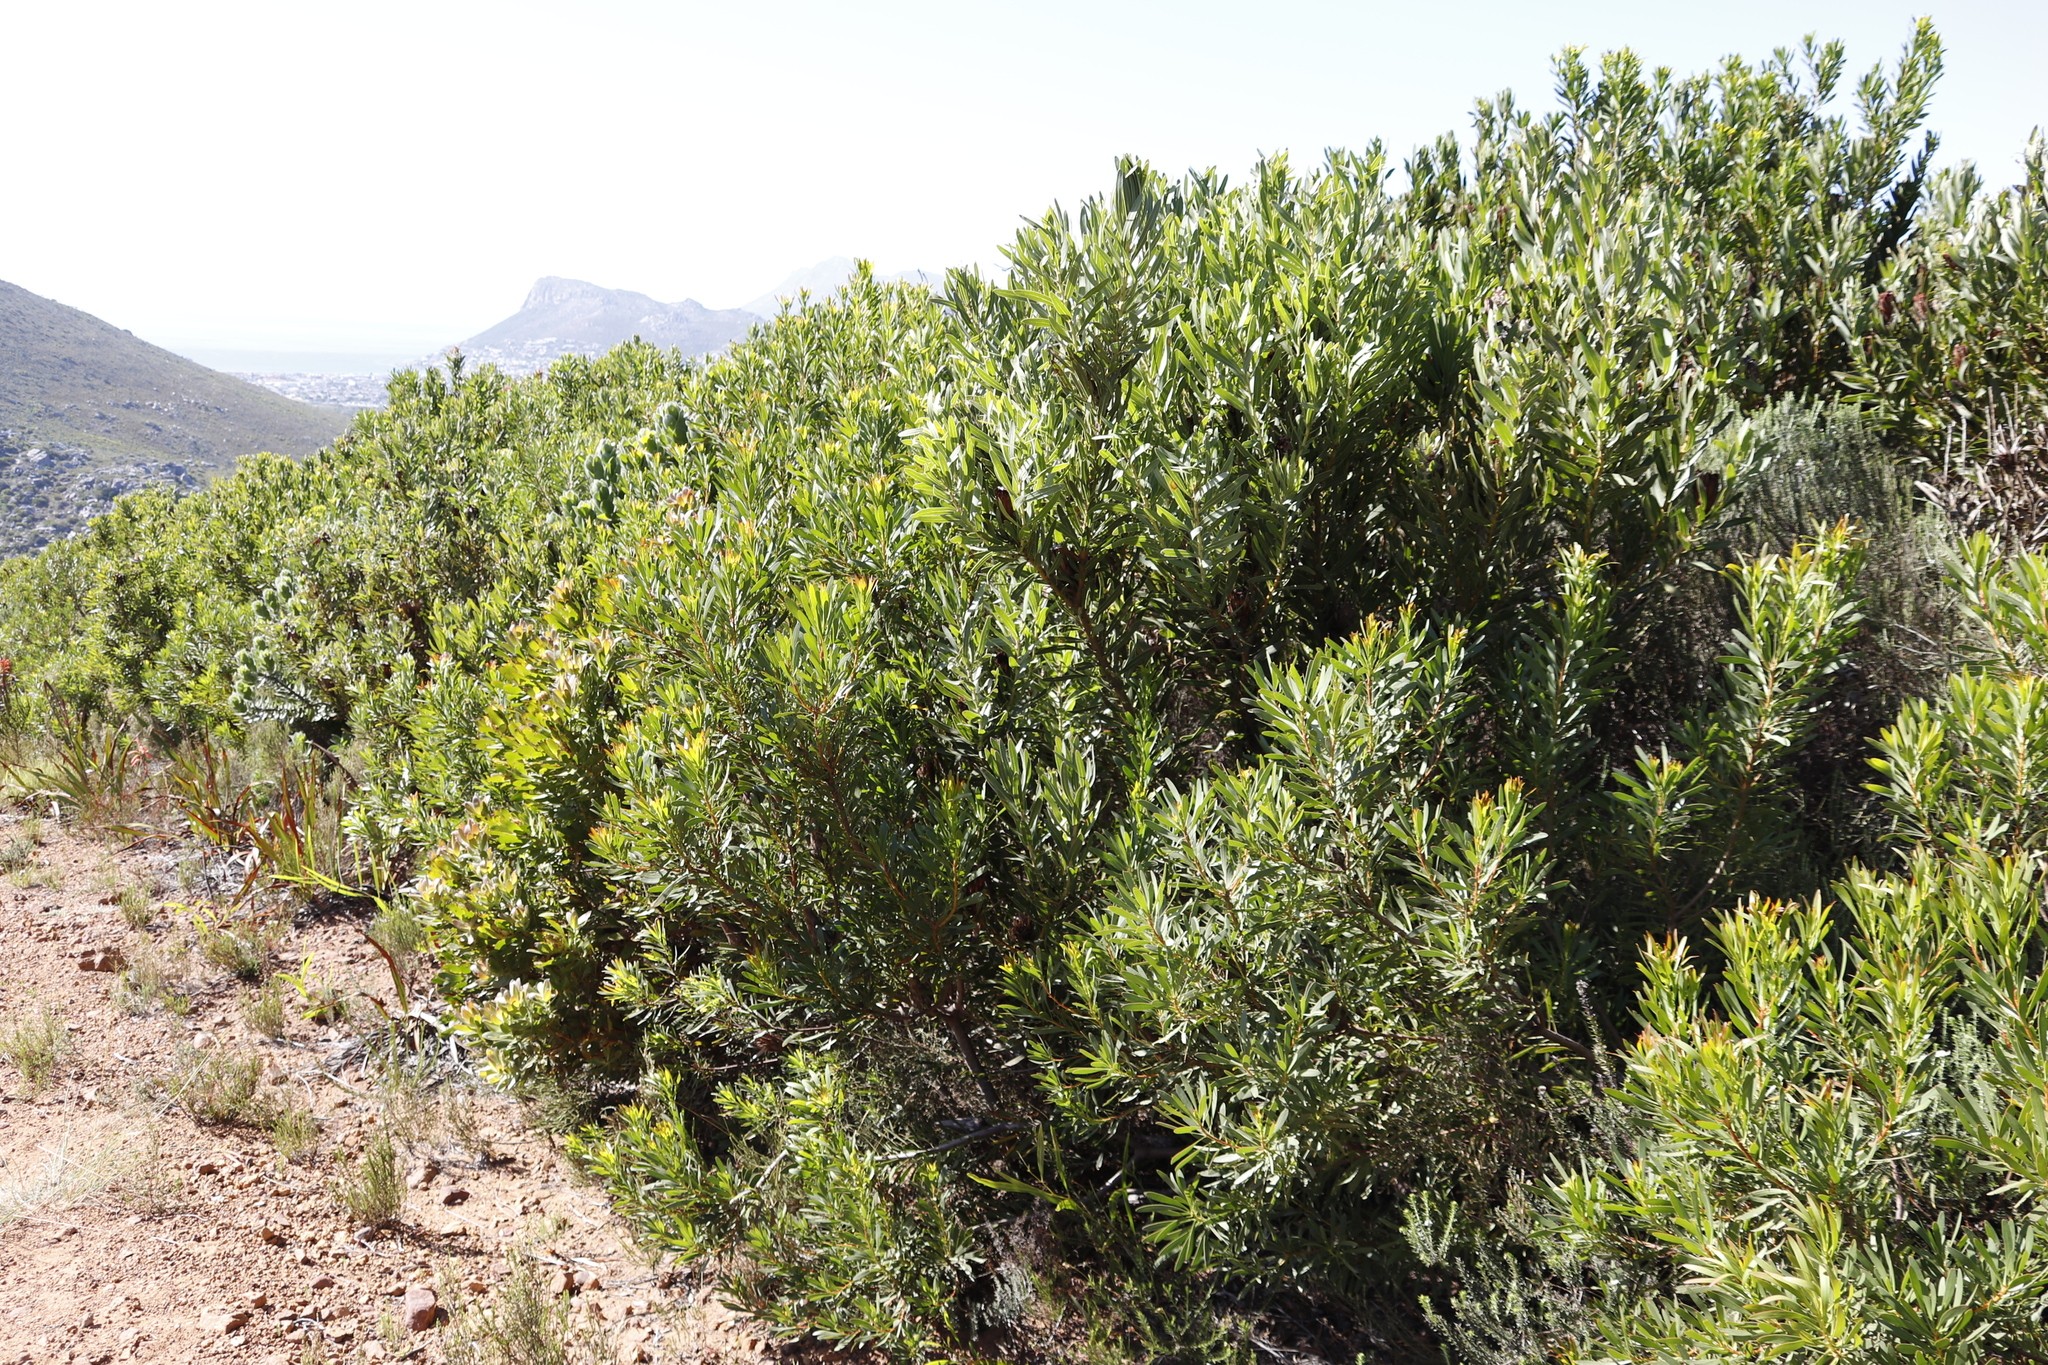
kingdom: Plantae
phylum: Tracheophyta
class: Magnoliopsida
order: Proteales
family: Proteaceae
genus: Protea
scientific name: Protea repens
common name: Sugarbush
